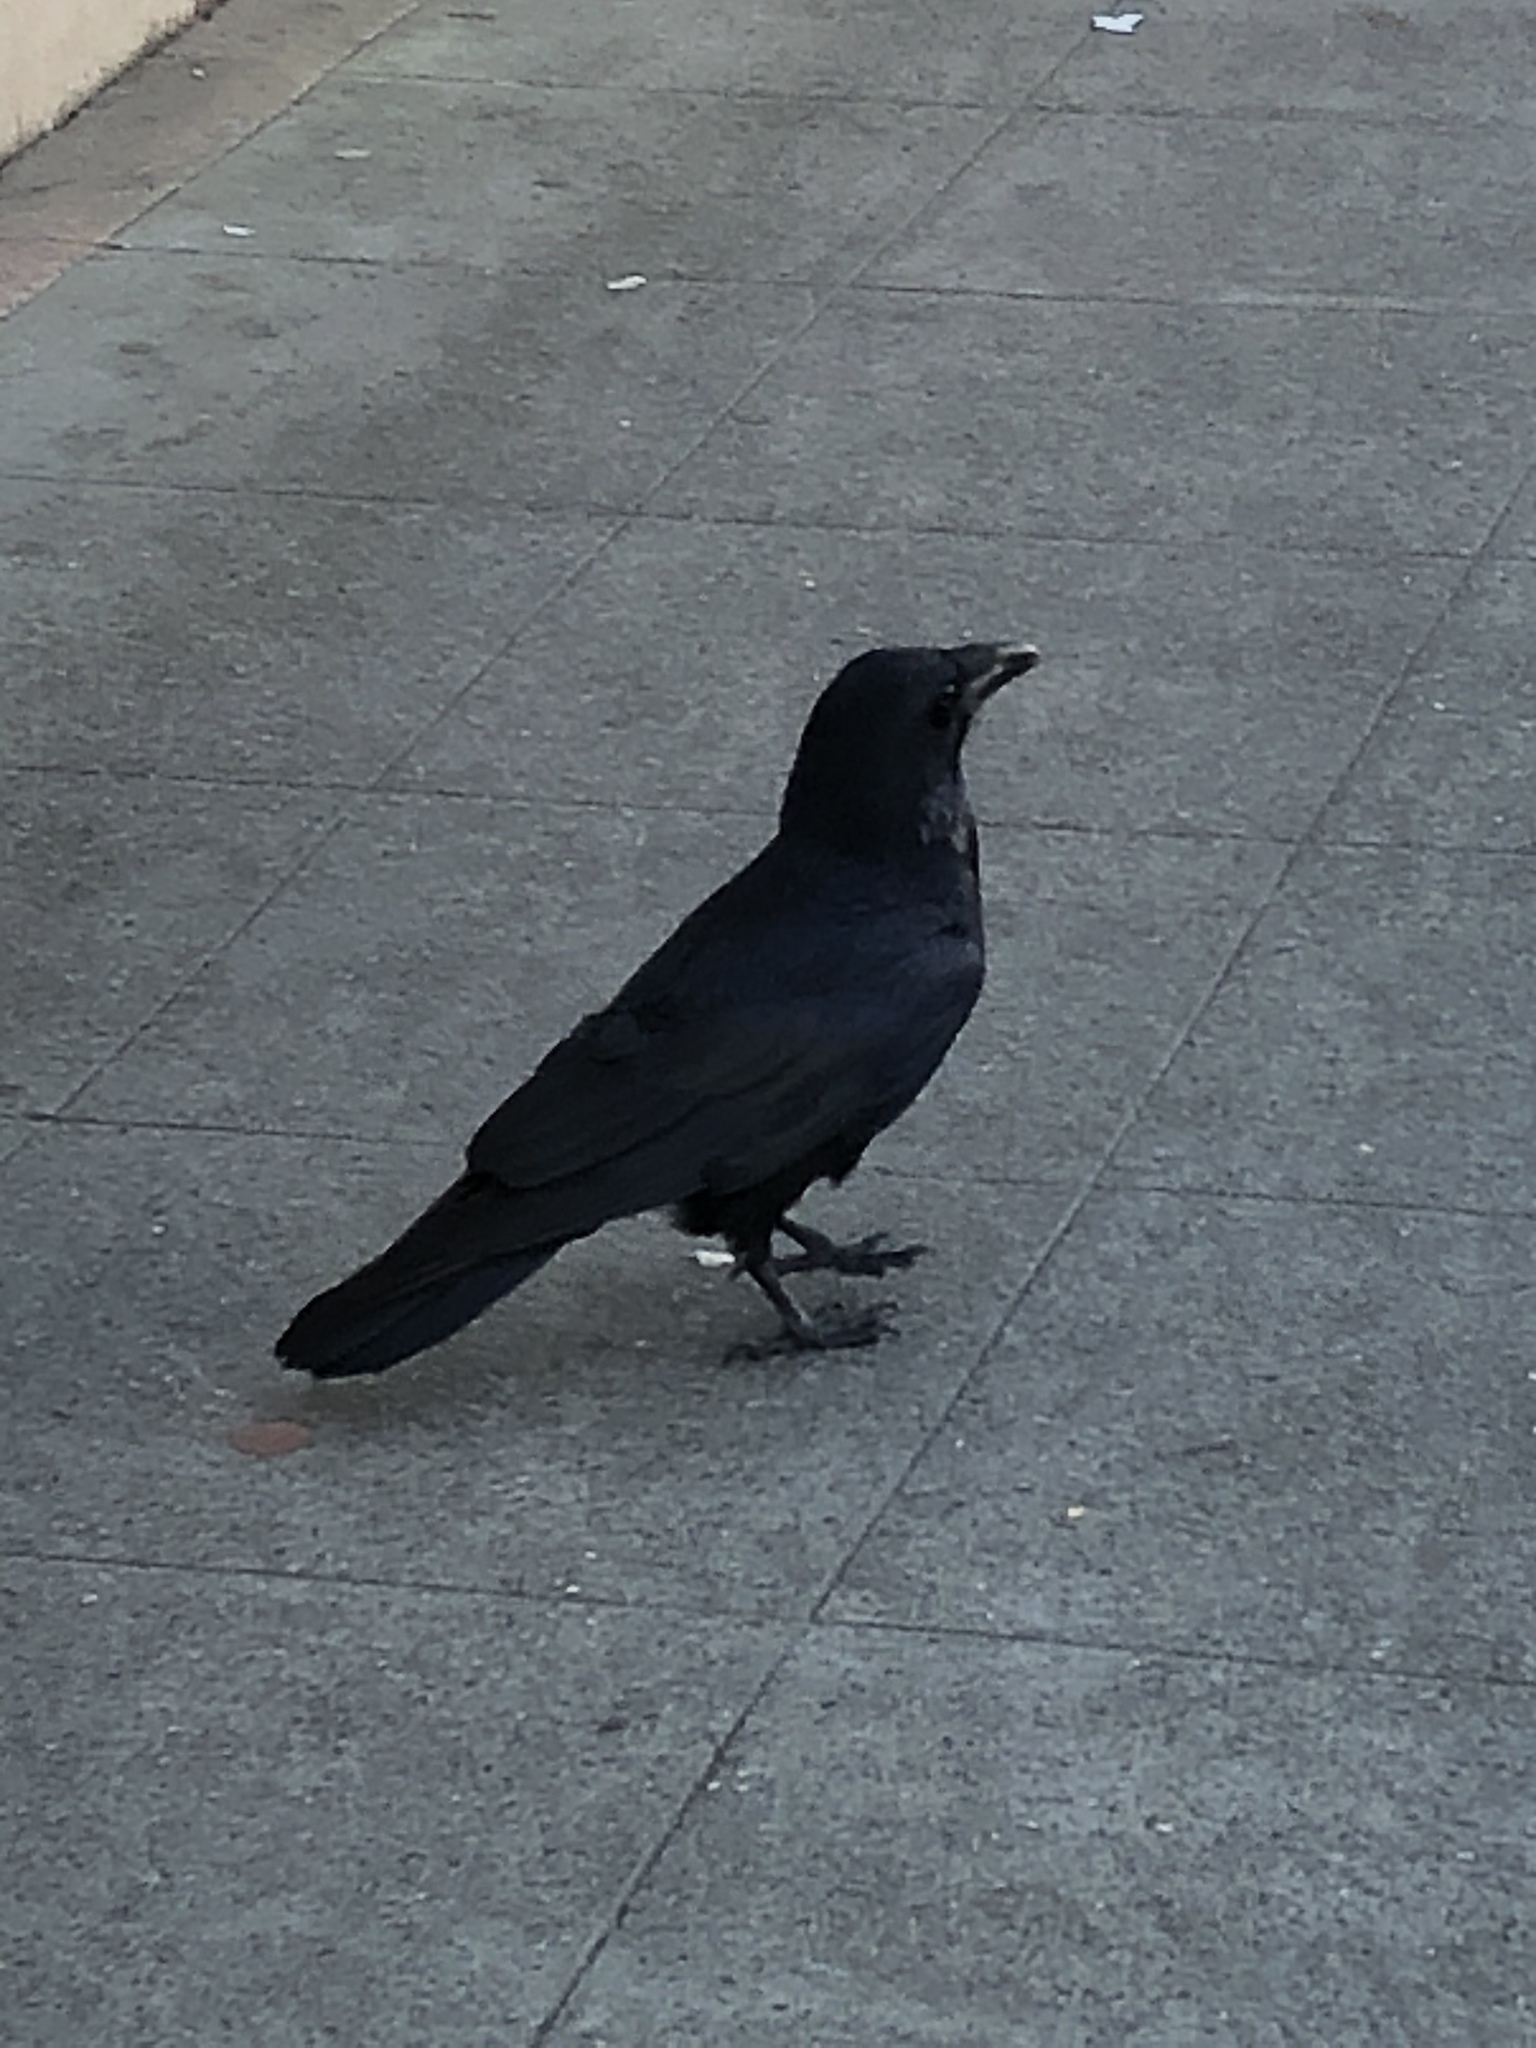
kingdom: Animalia
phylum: Chordata
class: Aves
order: Passeriformes
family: Corvidae
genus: Corvus
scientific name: Corvus corax
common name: Common raven
